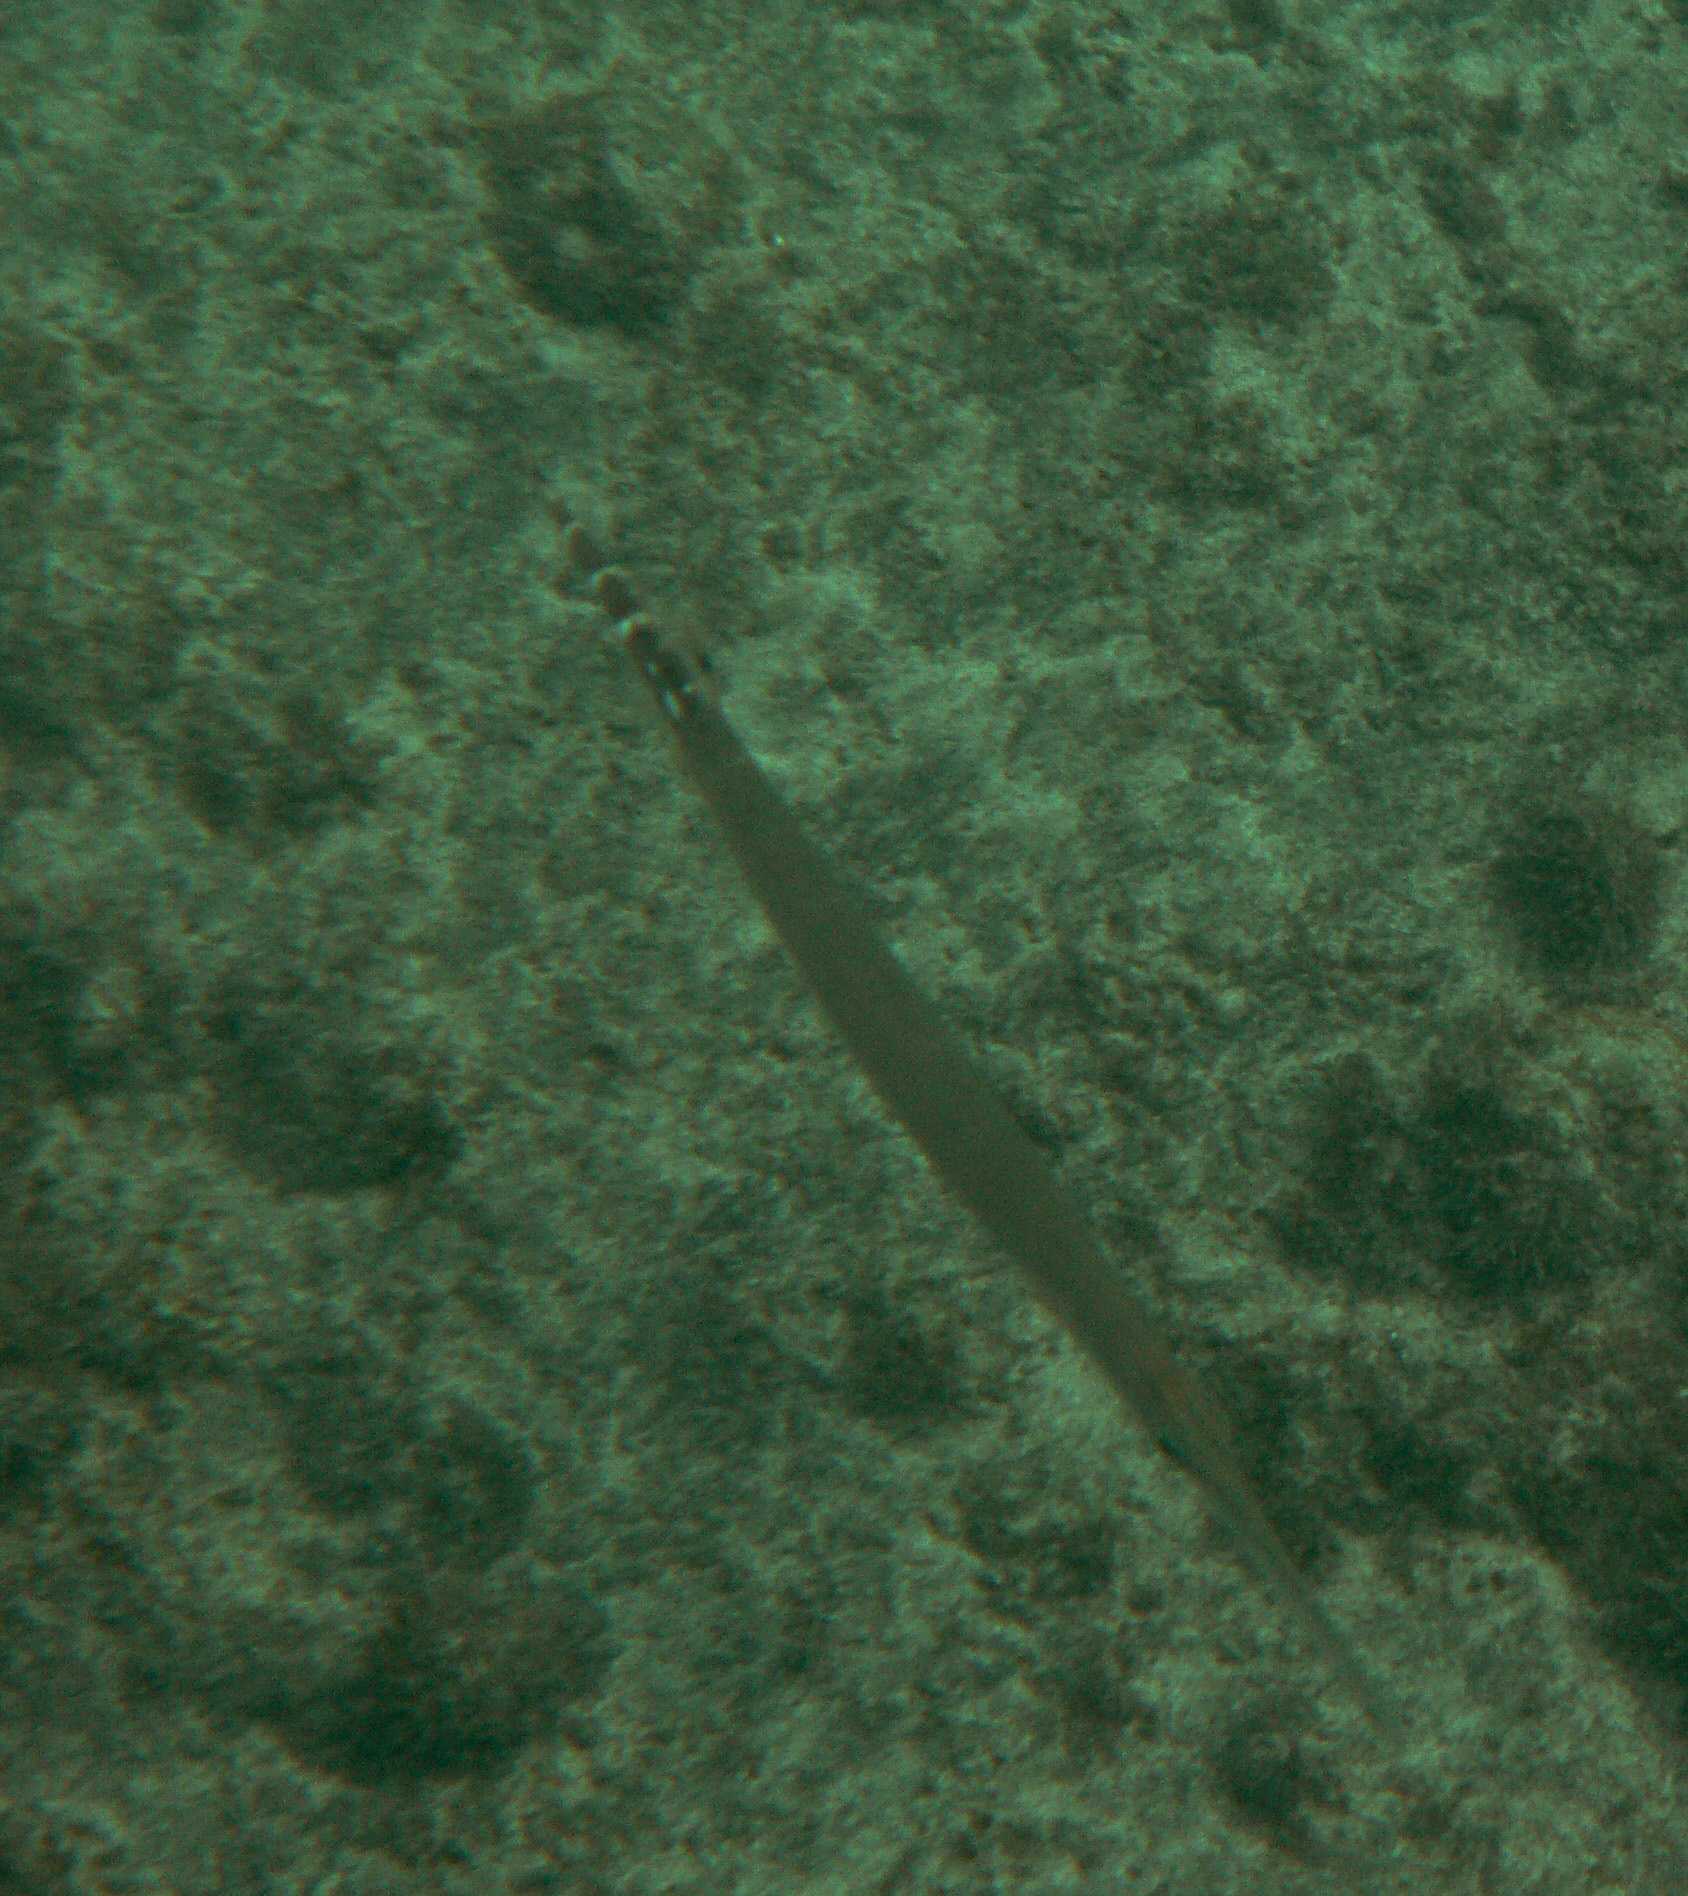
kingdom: Animalia
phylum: Chordata
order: Syngnathiformes
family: Aulostomidae
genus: Aulostomus
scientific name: Aulostomus strigosus
